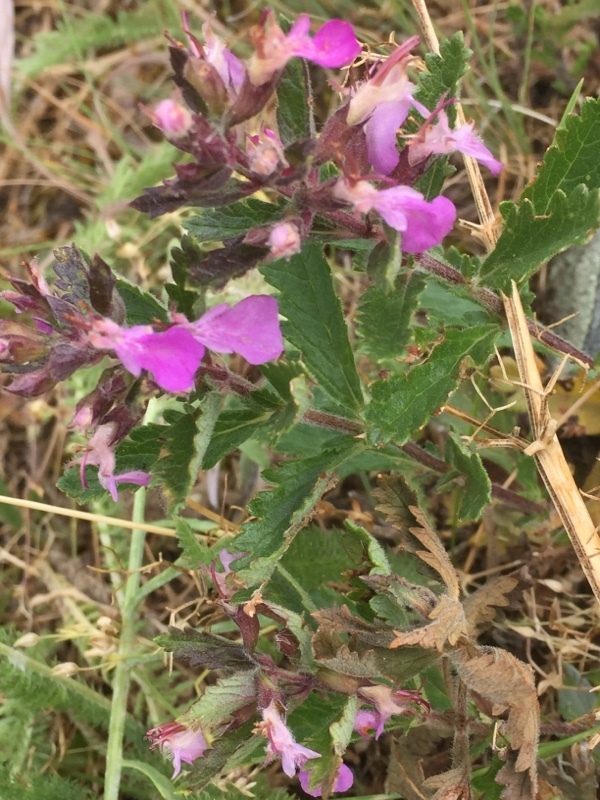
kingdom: Plantae
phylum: Tracheophyta
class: Magnoliopsida
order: Lamiales
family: Lamiaceae
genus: Teucrium
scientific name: Teucrium chamaedrys
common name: Wall germander
